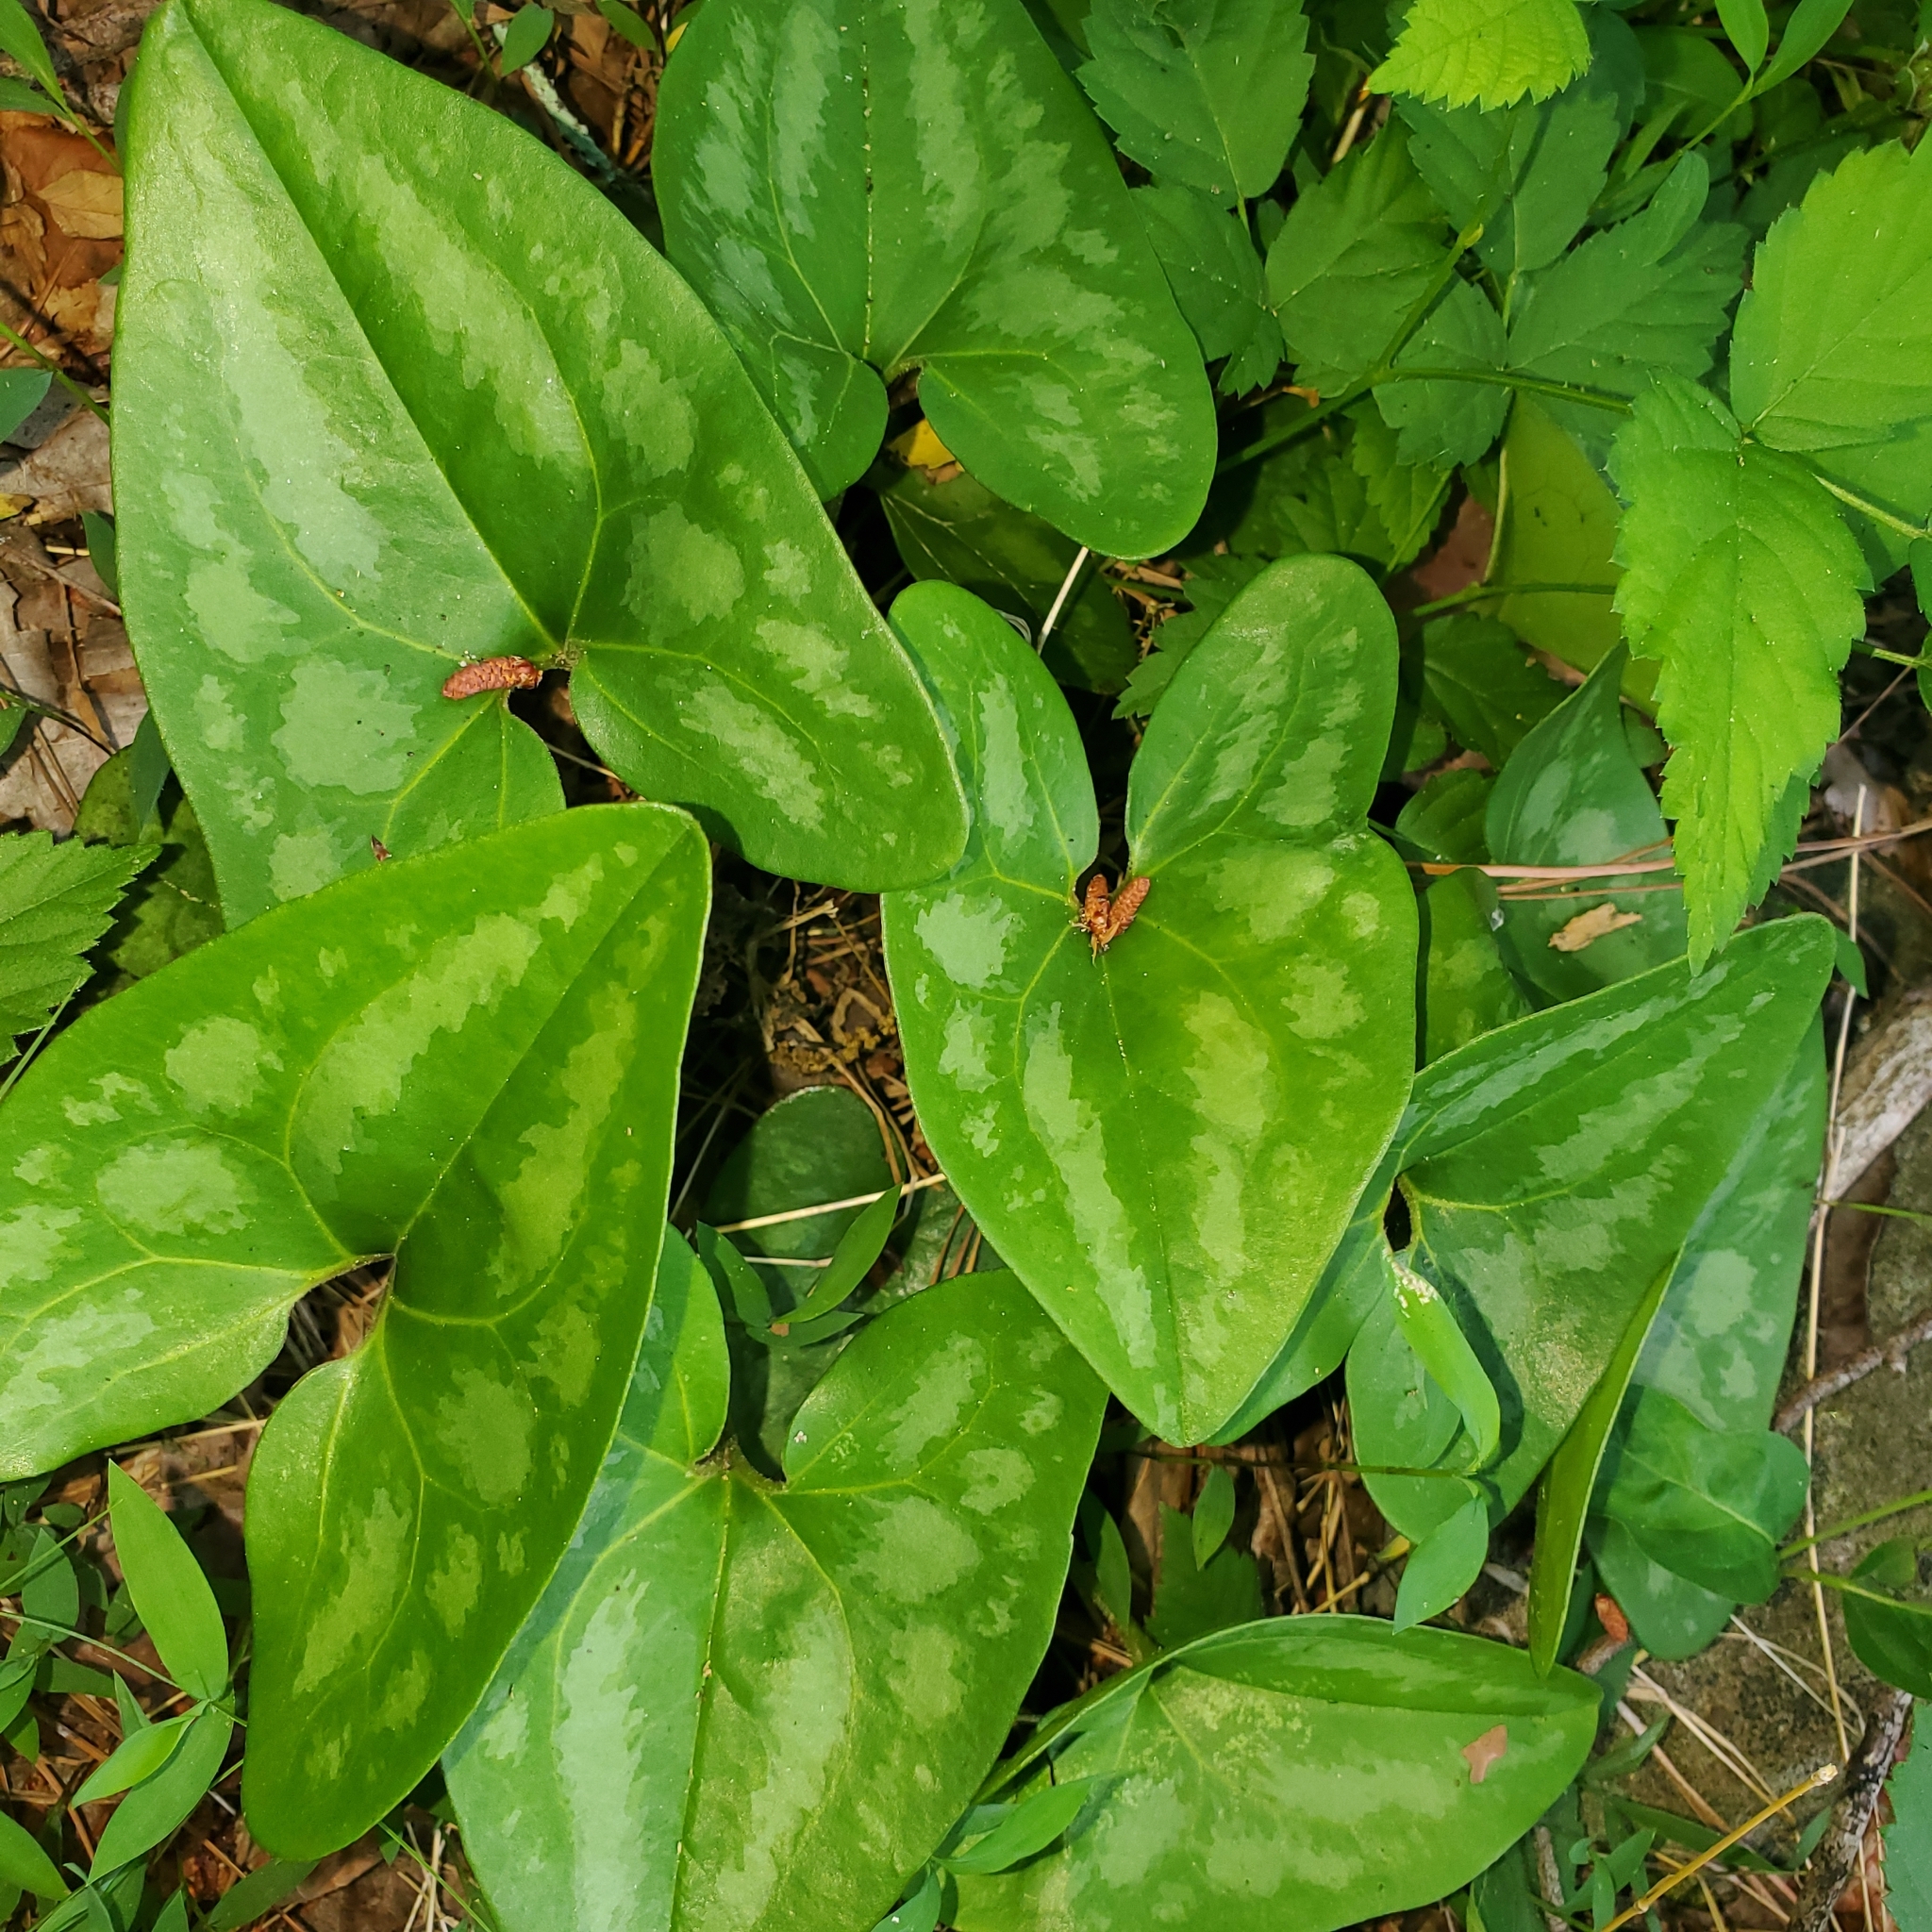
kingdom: Plantae
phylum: Tracheophyta
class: Magnoliopsida
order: Piperales
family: Aristolochiaceae
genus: Hexastylis
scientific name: Hexastylis arifolia
